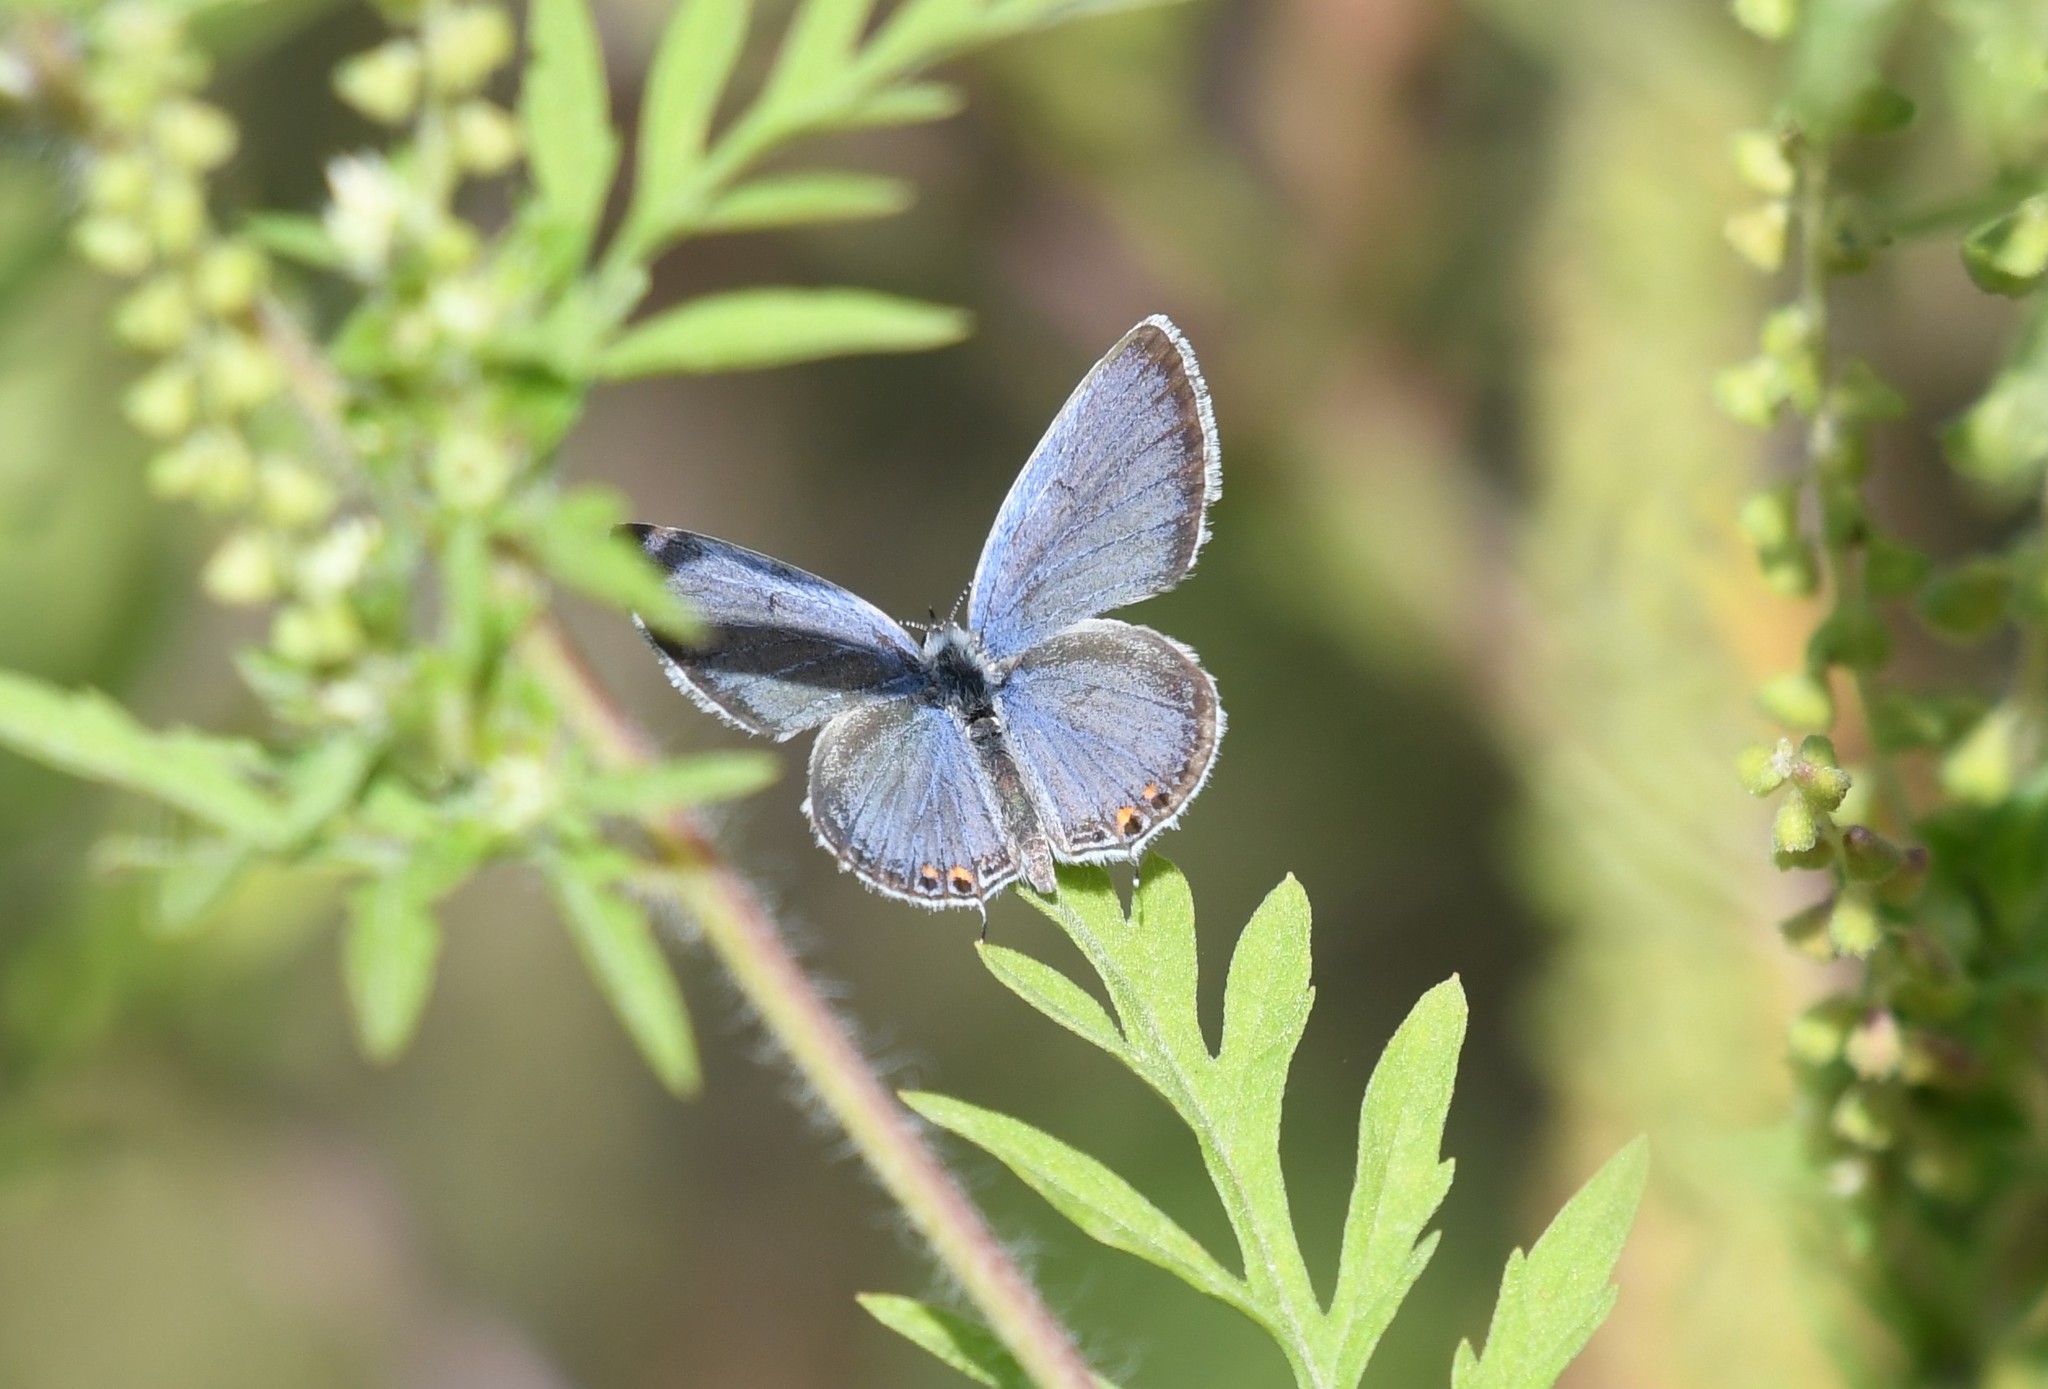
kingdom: Animalia
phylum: Arthropoda
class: Insecta
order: Lepidoptera
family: Lycaenidae
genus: Elkalyce
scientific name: Elkalyce comyntas
